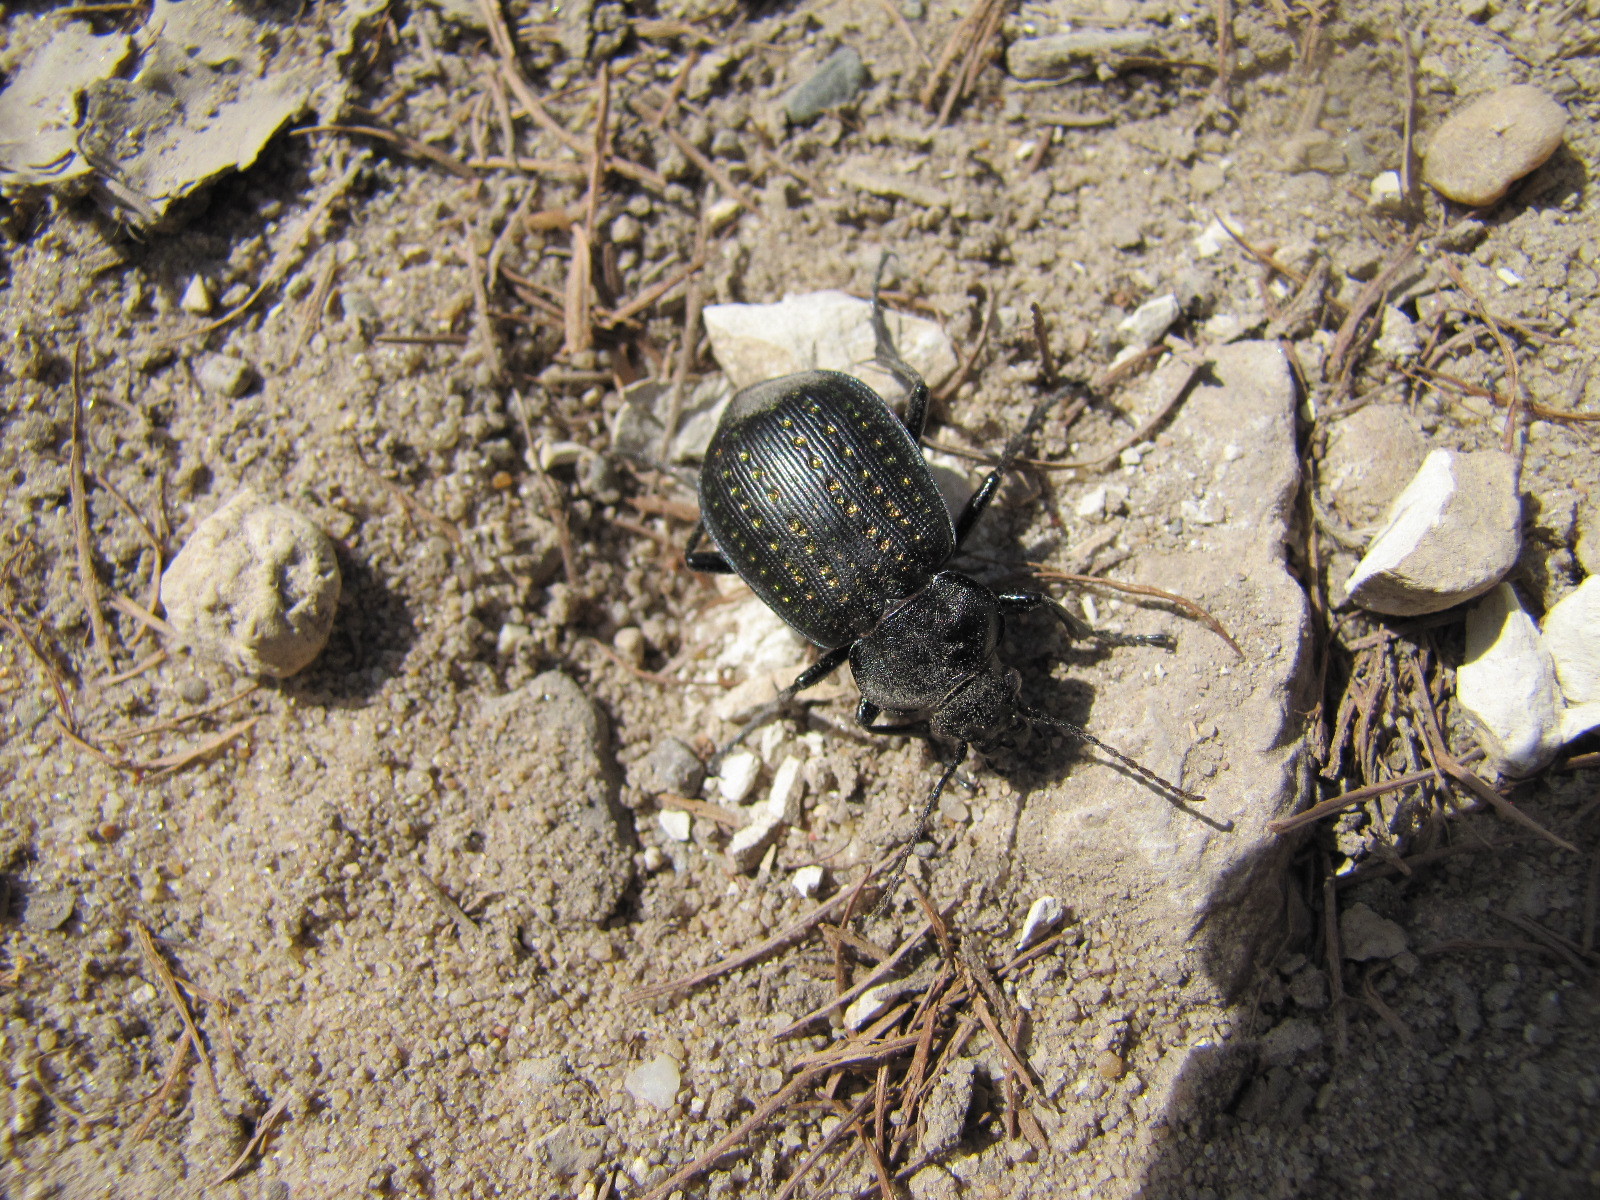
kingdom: Animalia
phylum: Arthropoda
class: Insecta
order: Coleoptera
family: Carabidae
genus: Calosoma
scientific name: Calosoma calidum
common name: Fiery hunter
